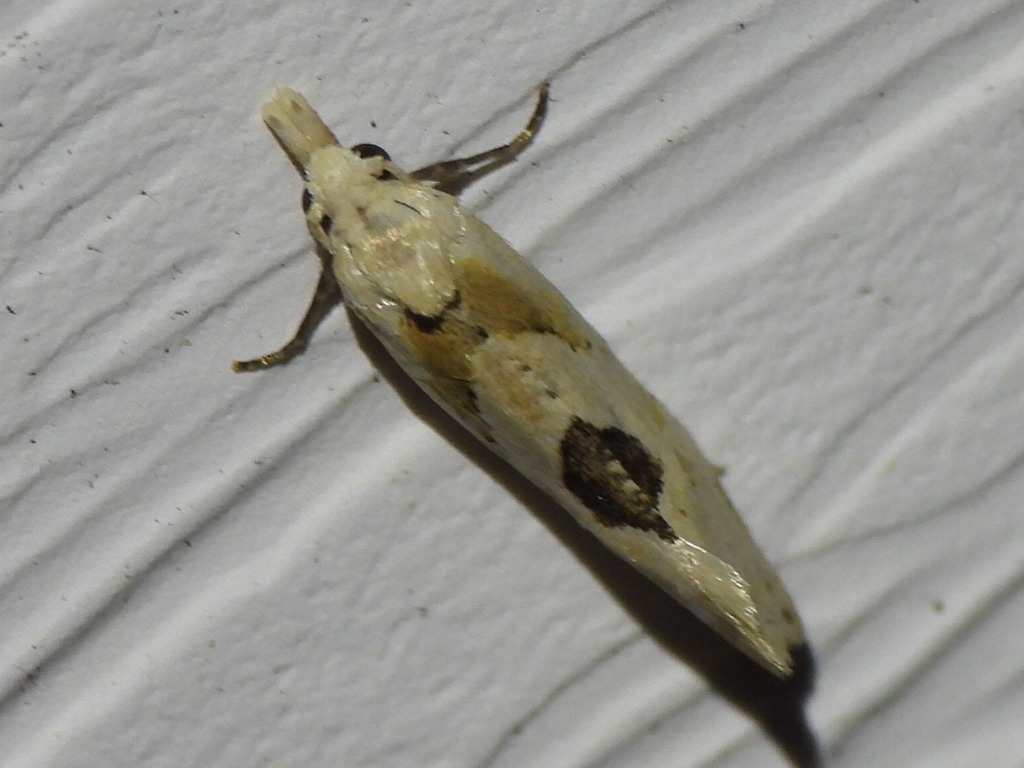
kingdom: Animalia
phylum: Arthropoda
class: Insecta
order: Lepidoptera
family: Tortricidae
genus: Aethes
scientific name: Aethes angustana
